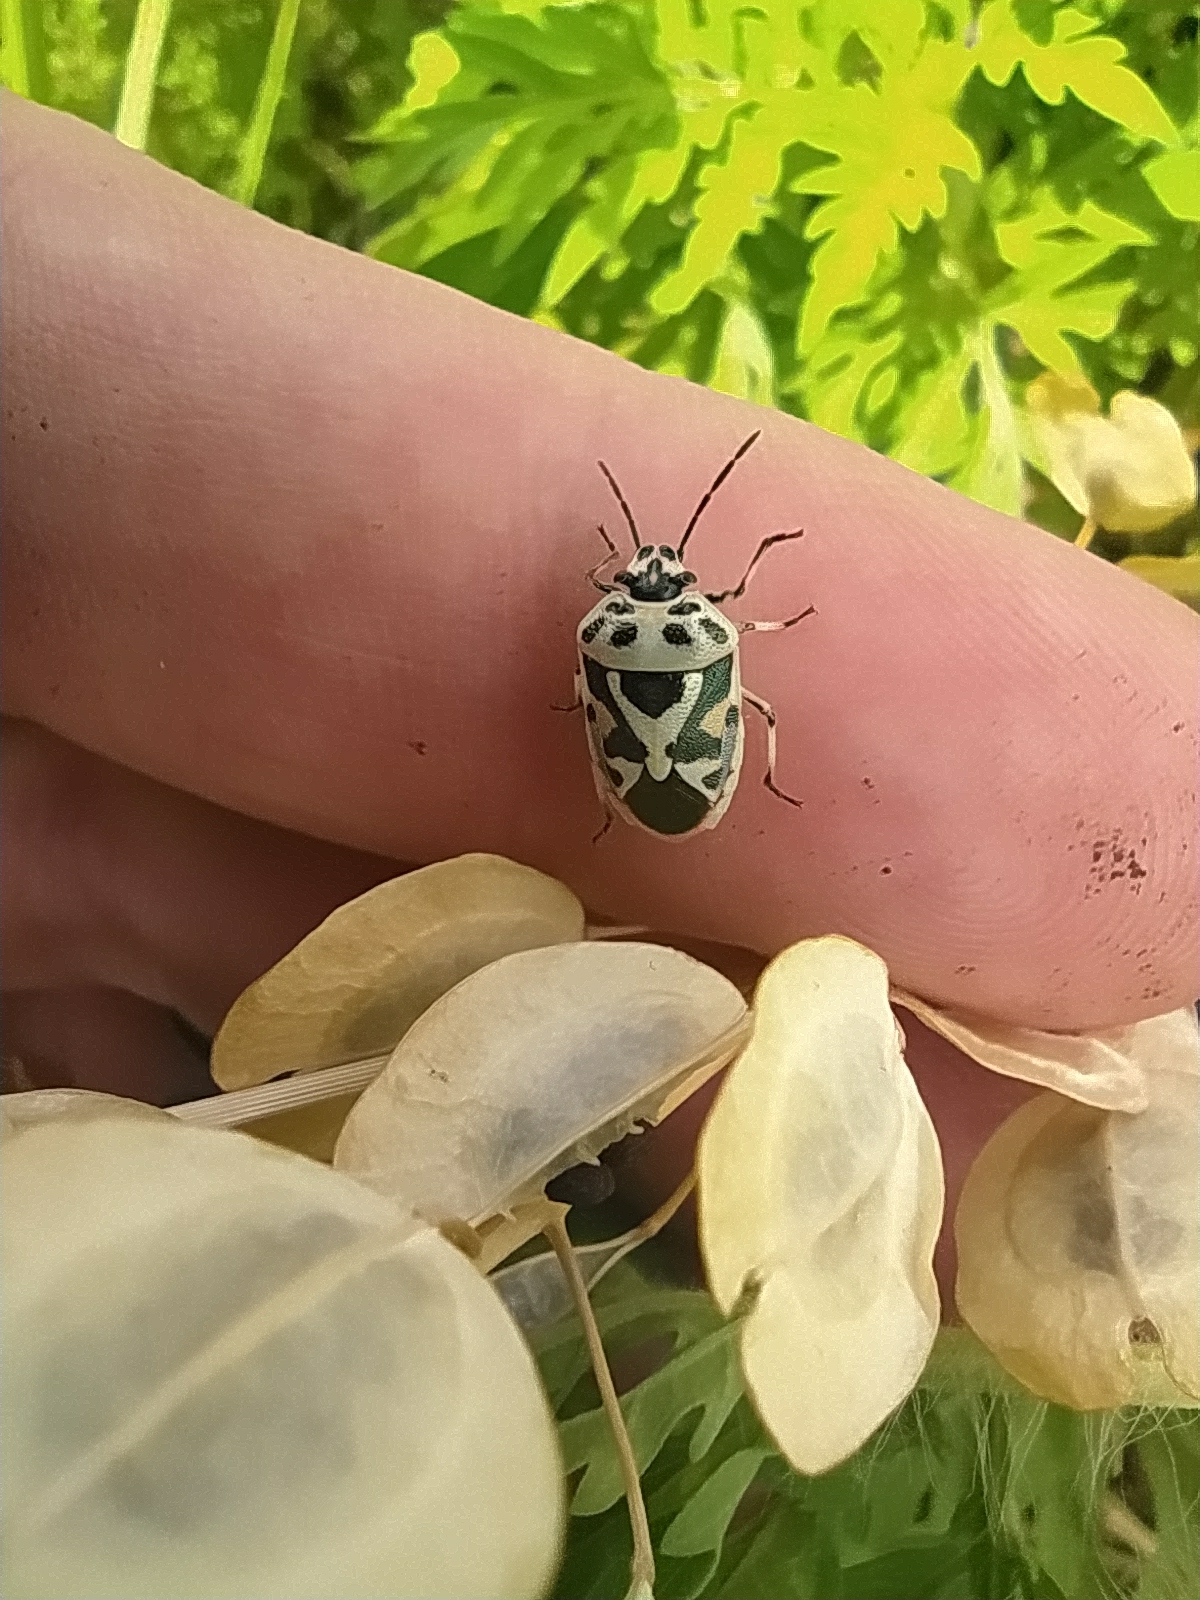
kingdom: Animalia
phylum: Arthropoda
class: Insecta
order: Hemiptera
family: Pentatomidae
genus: Eurydema
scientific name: Eurydema ornata
